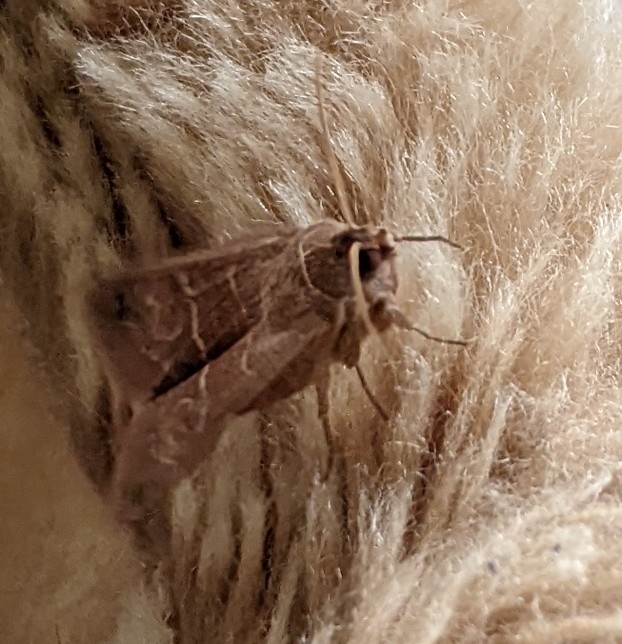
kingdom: Animalia
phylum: Arthropoda
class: Insecta
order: Lepidoptera
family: Erebidae
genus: Cissusa
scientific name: Cissusa spadix
